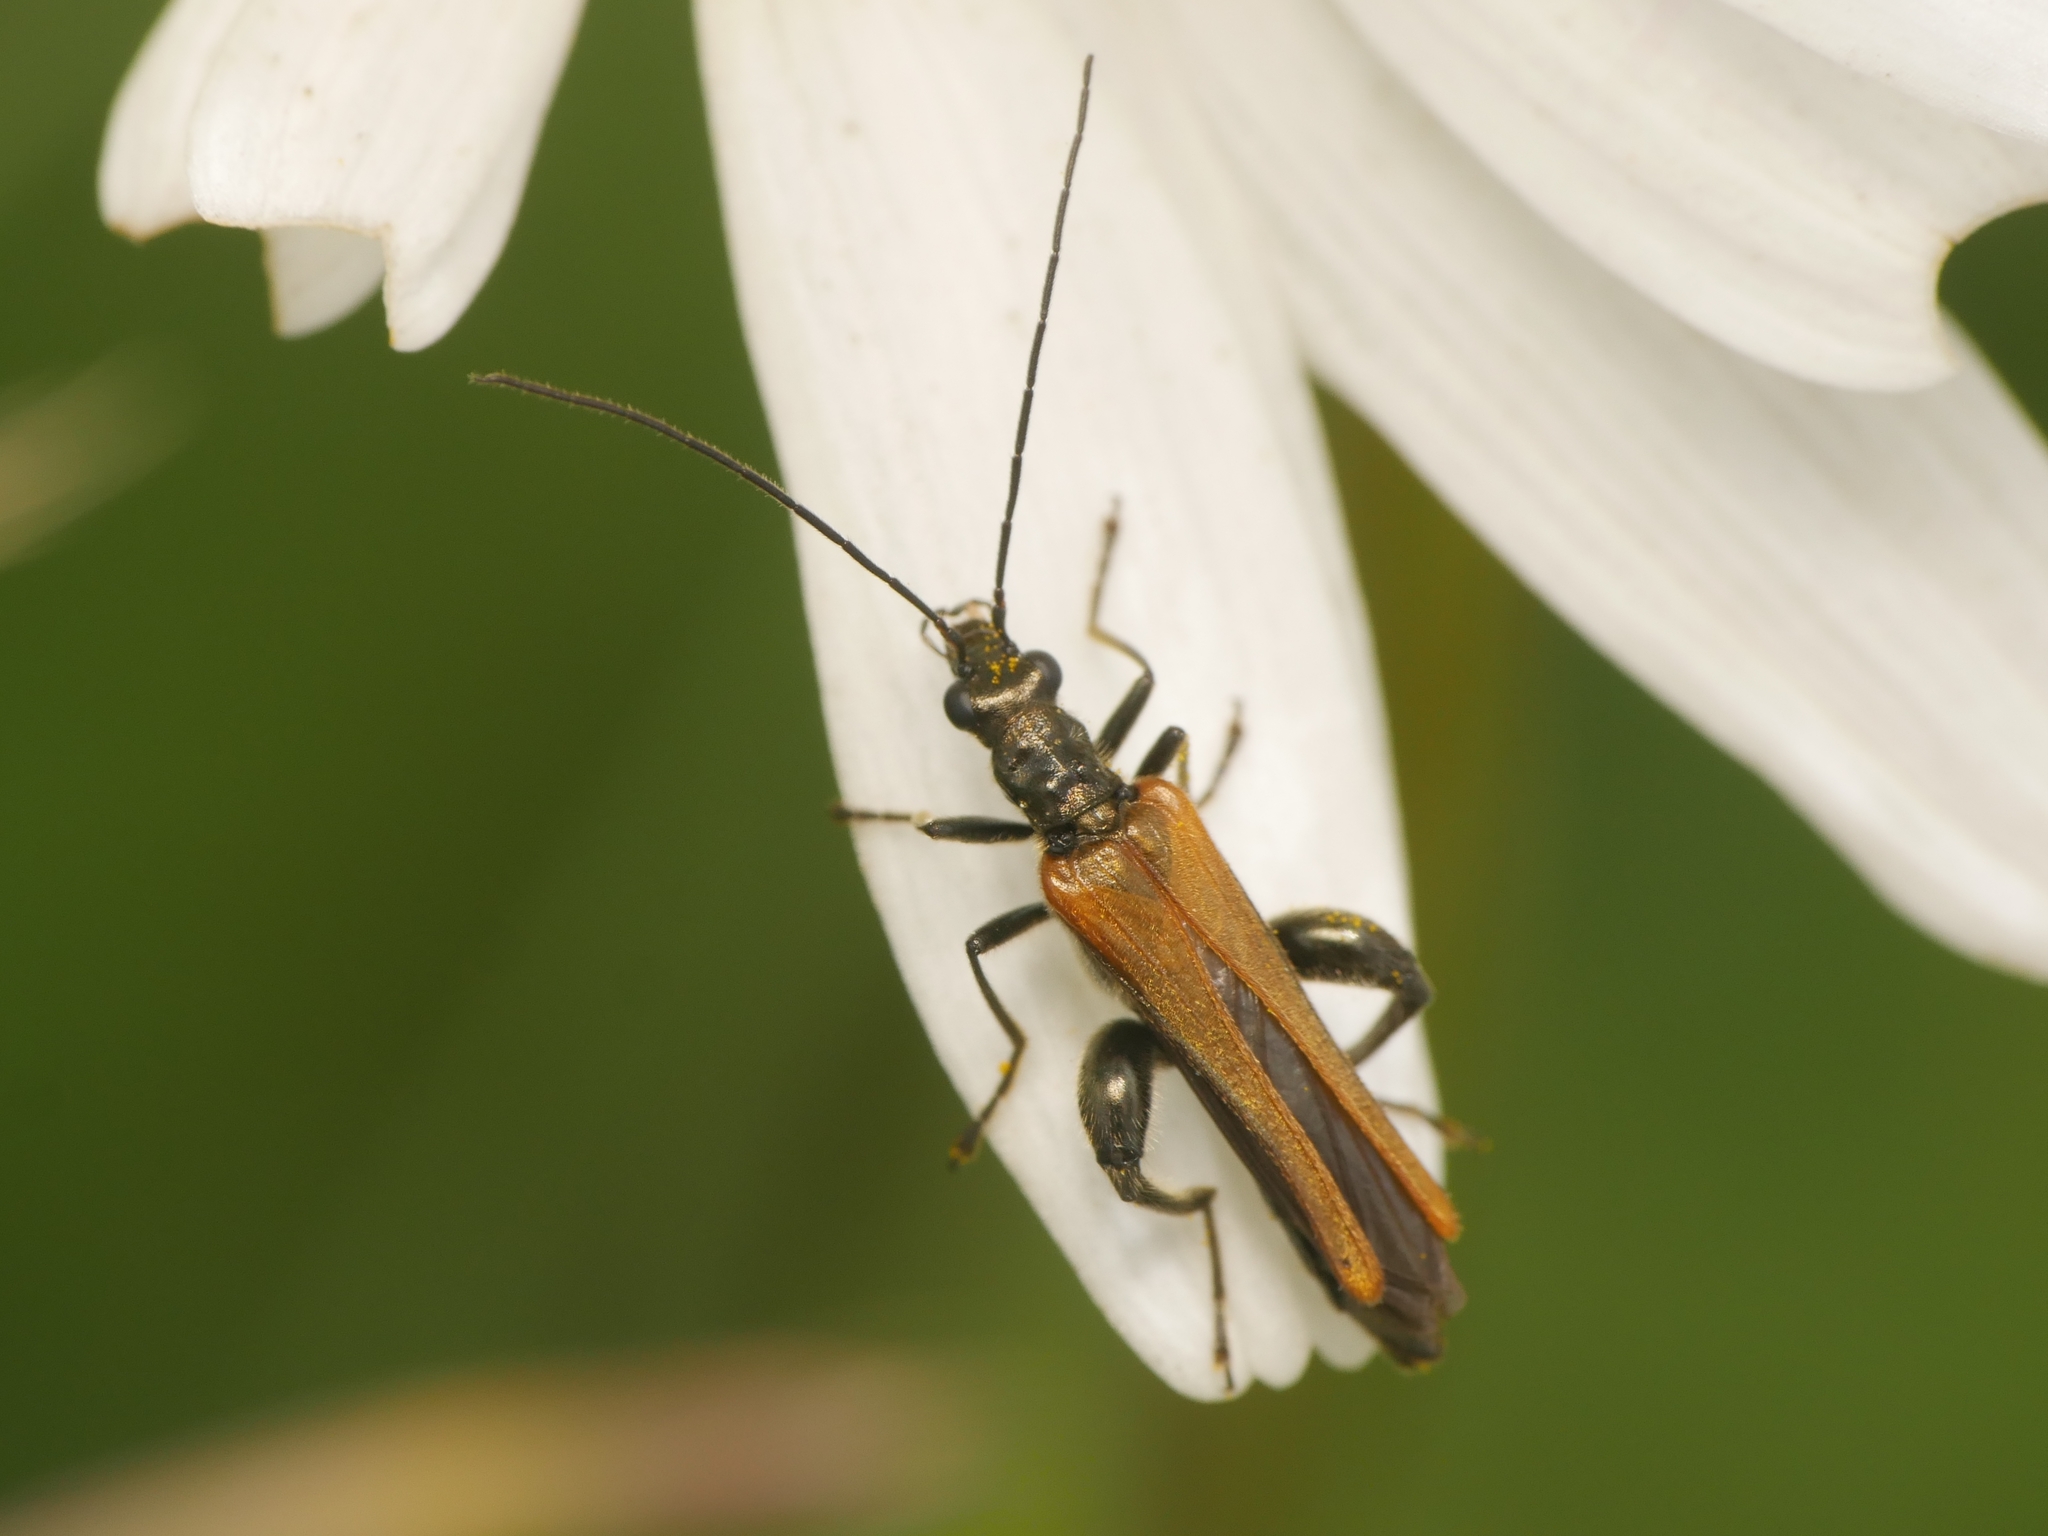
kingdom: Animalia
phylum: Arthropoda
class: Insecta
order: Coleoptera
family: Oedemeridae
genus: Oedemera
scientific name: Oedemera femorata
